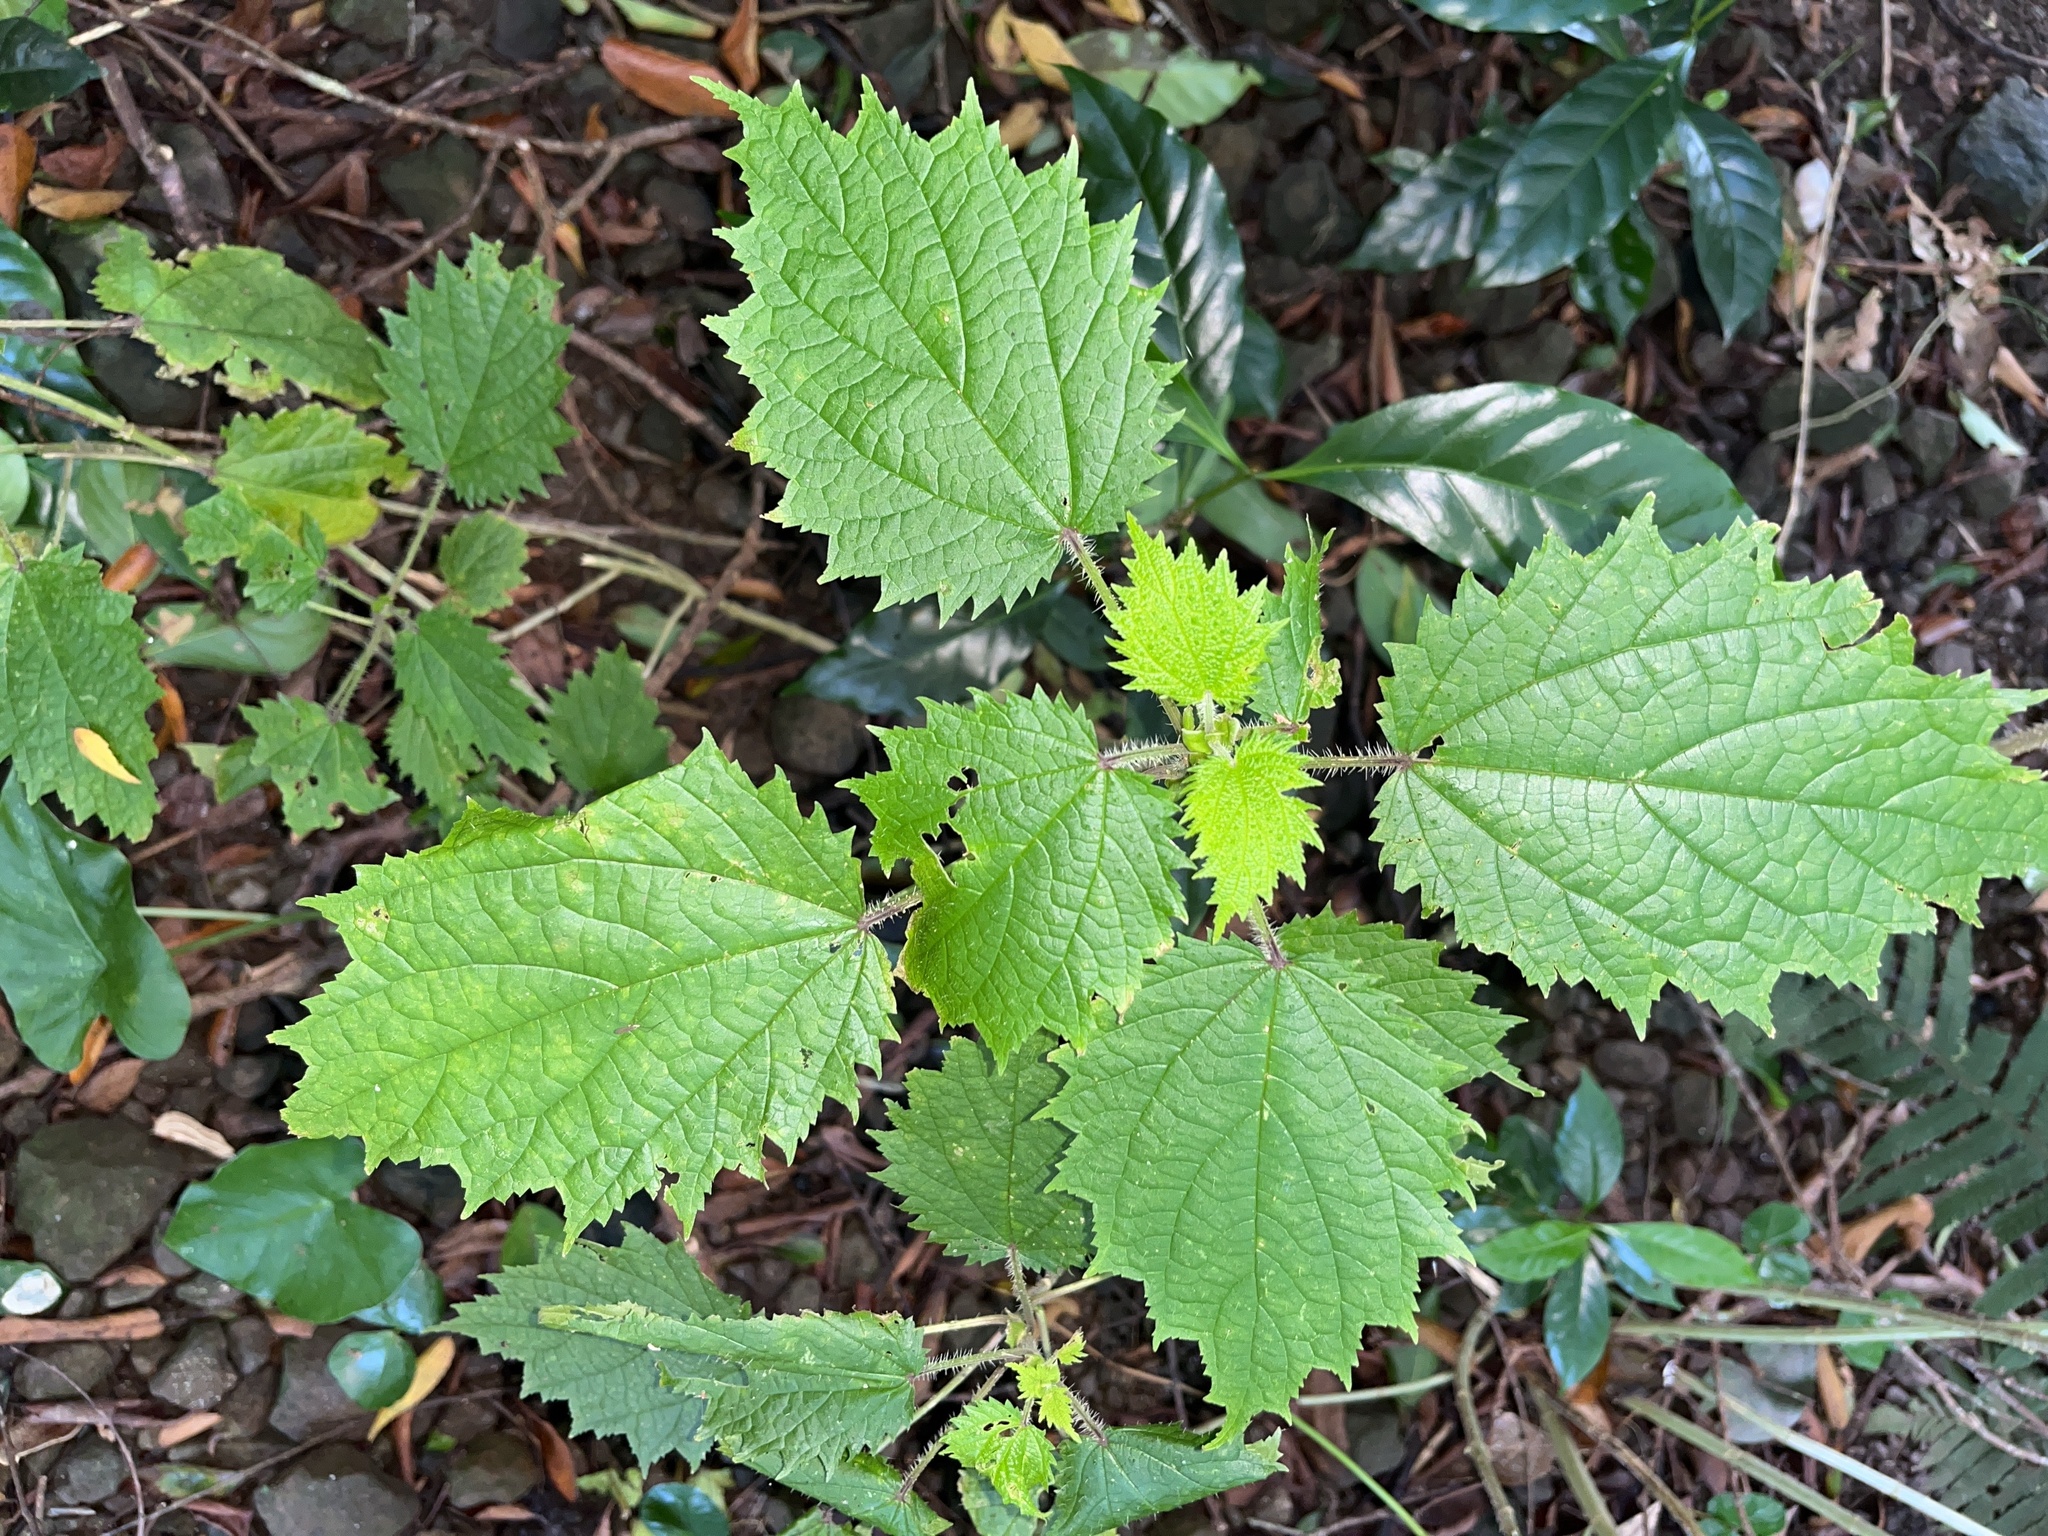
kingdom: Plantae
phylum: Tracheophyta
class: Magnoliopsida
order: Rosales
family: Urticaceae
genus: Urtica
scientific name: Urtica thunbergiana
